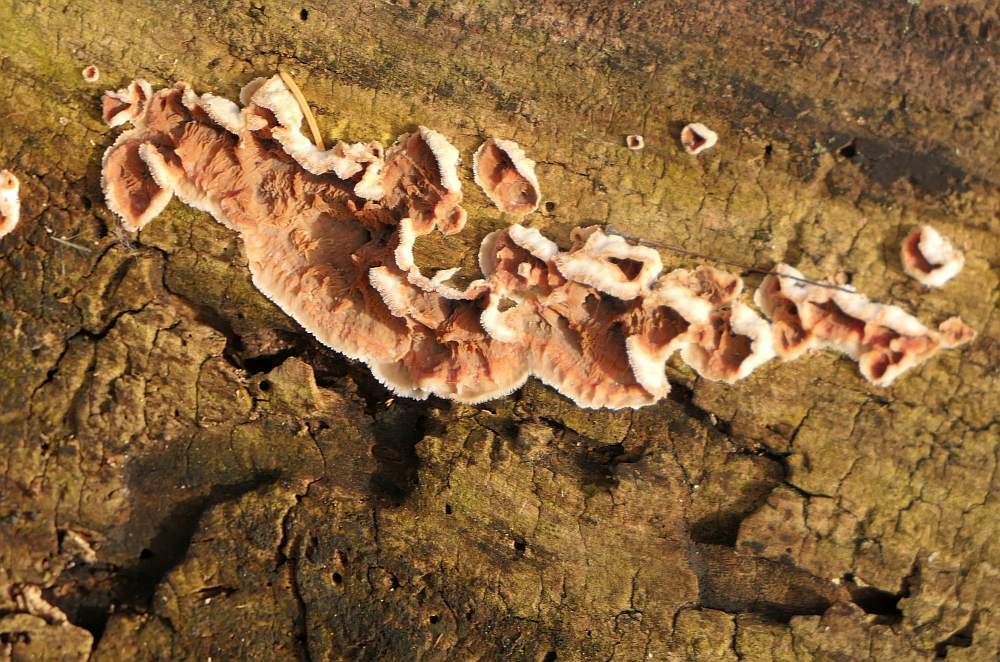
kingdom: Fungi
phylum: Basidiomycota
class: Agaricomycetes
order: Polyporales
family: Meruliaceae
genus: Phlebia
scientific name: Phlebia tremellosa
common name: Jelly rot
